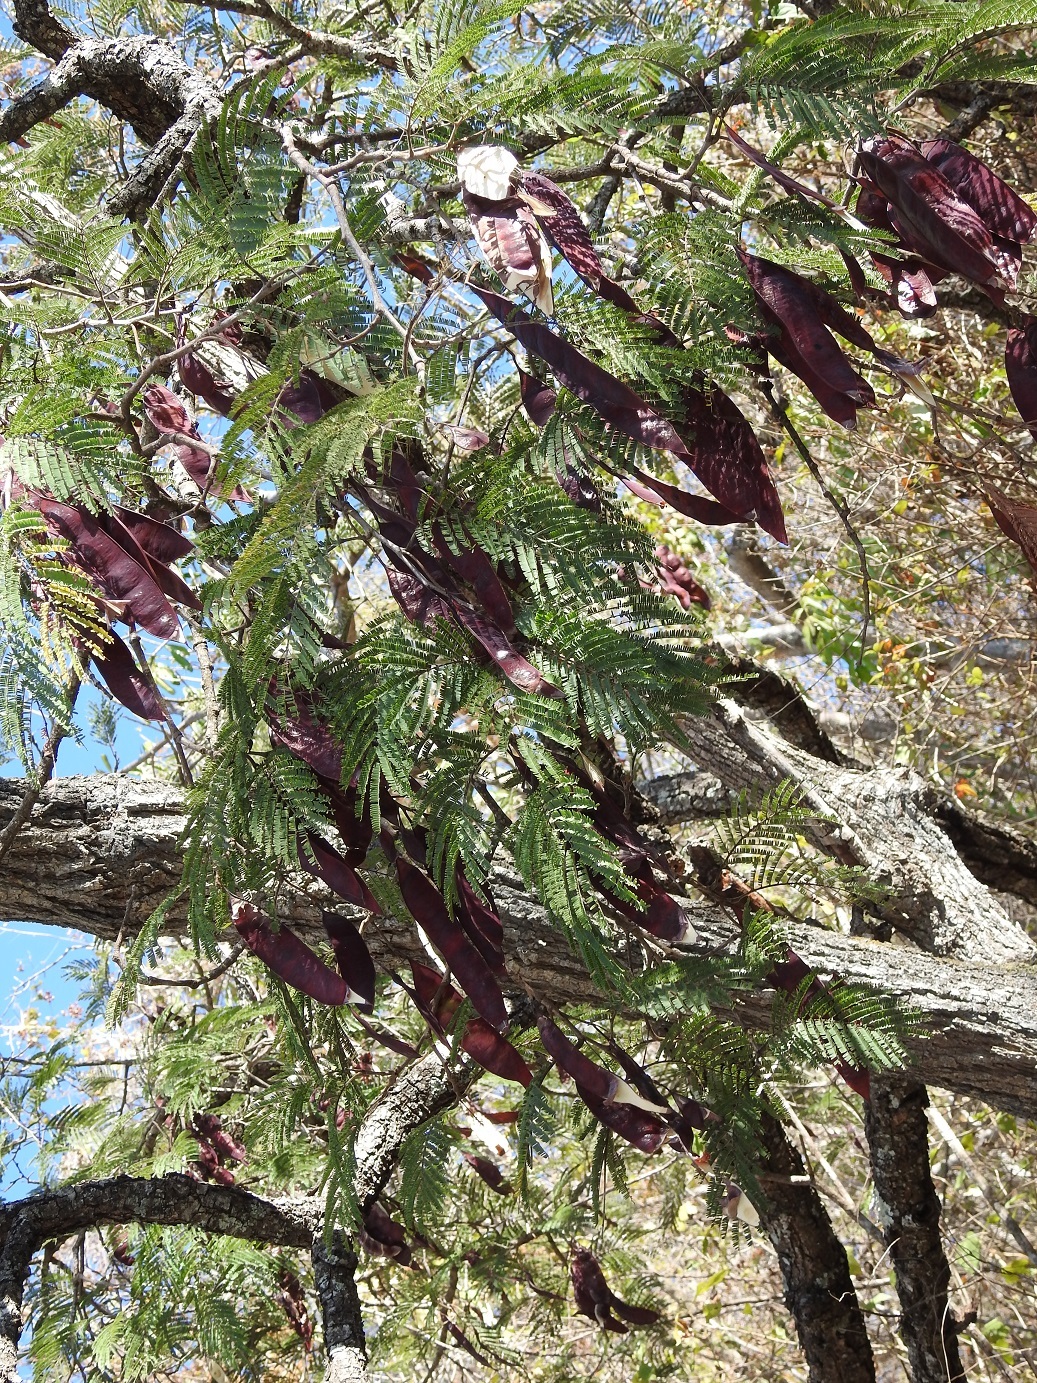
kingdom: Plantae
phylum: Tracheophyta
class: Magnoliopsida
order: Fabales
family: Fabaceae
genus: Lysiloma
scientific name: Lysiloma auritum
